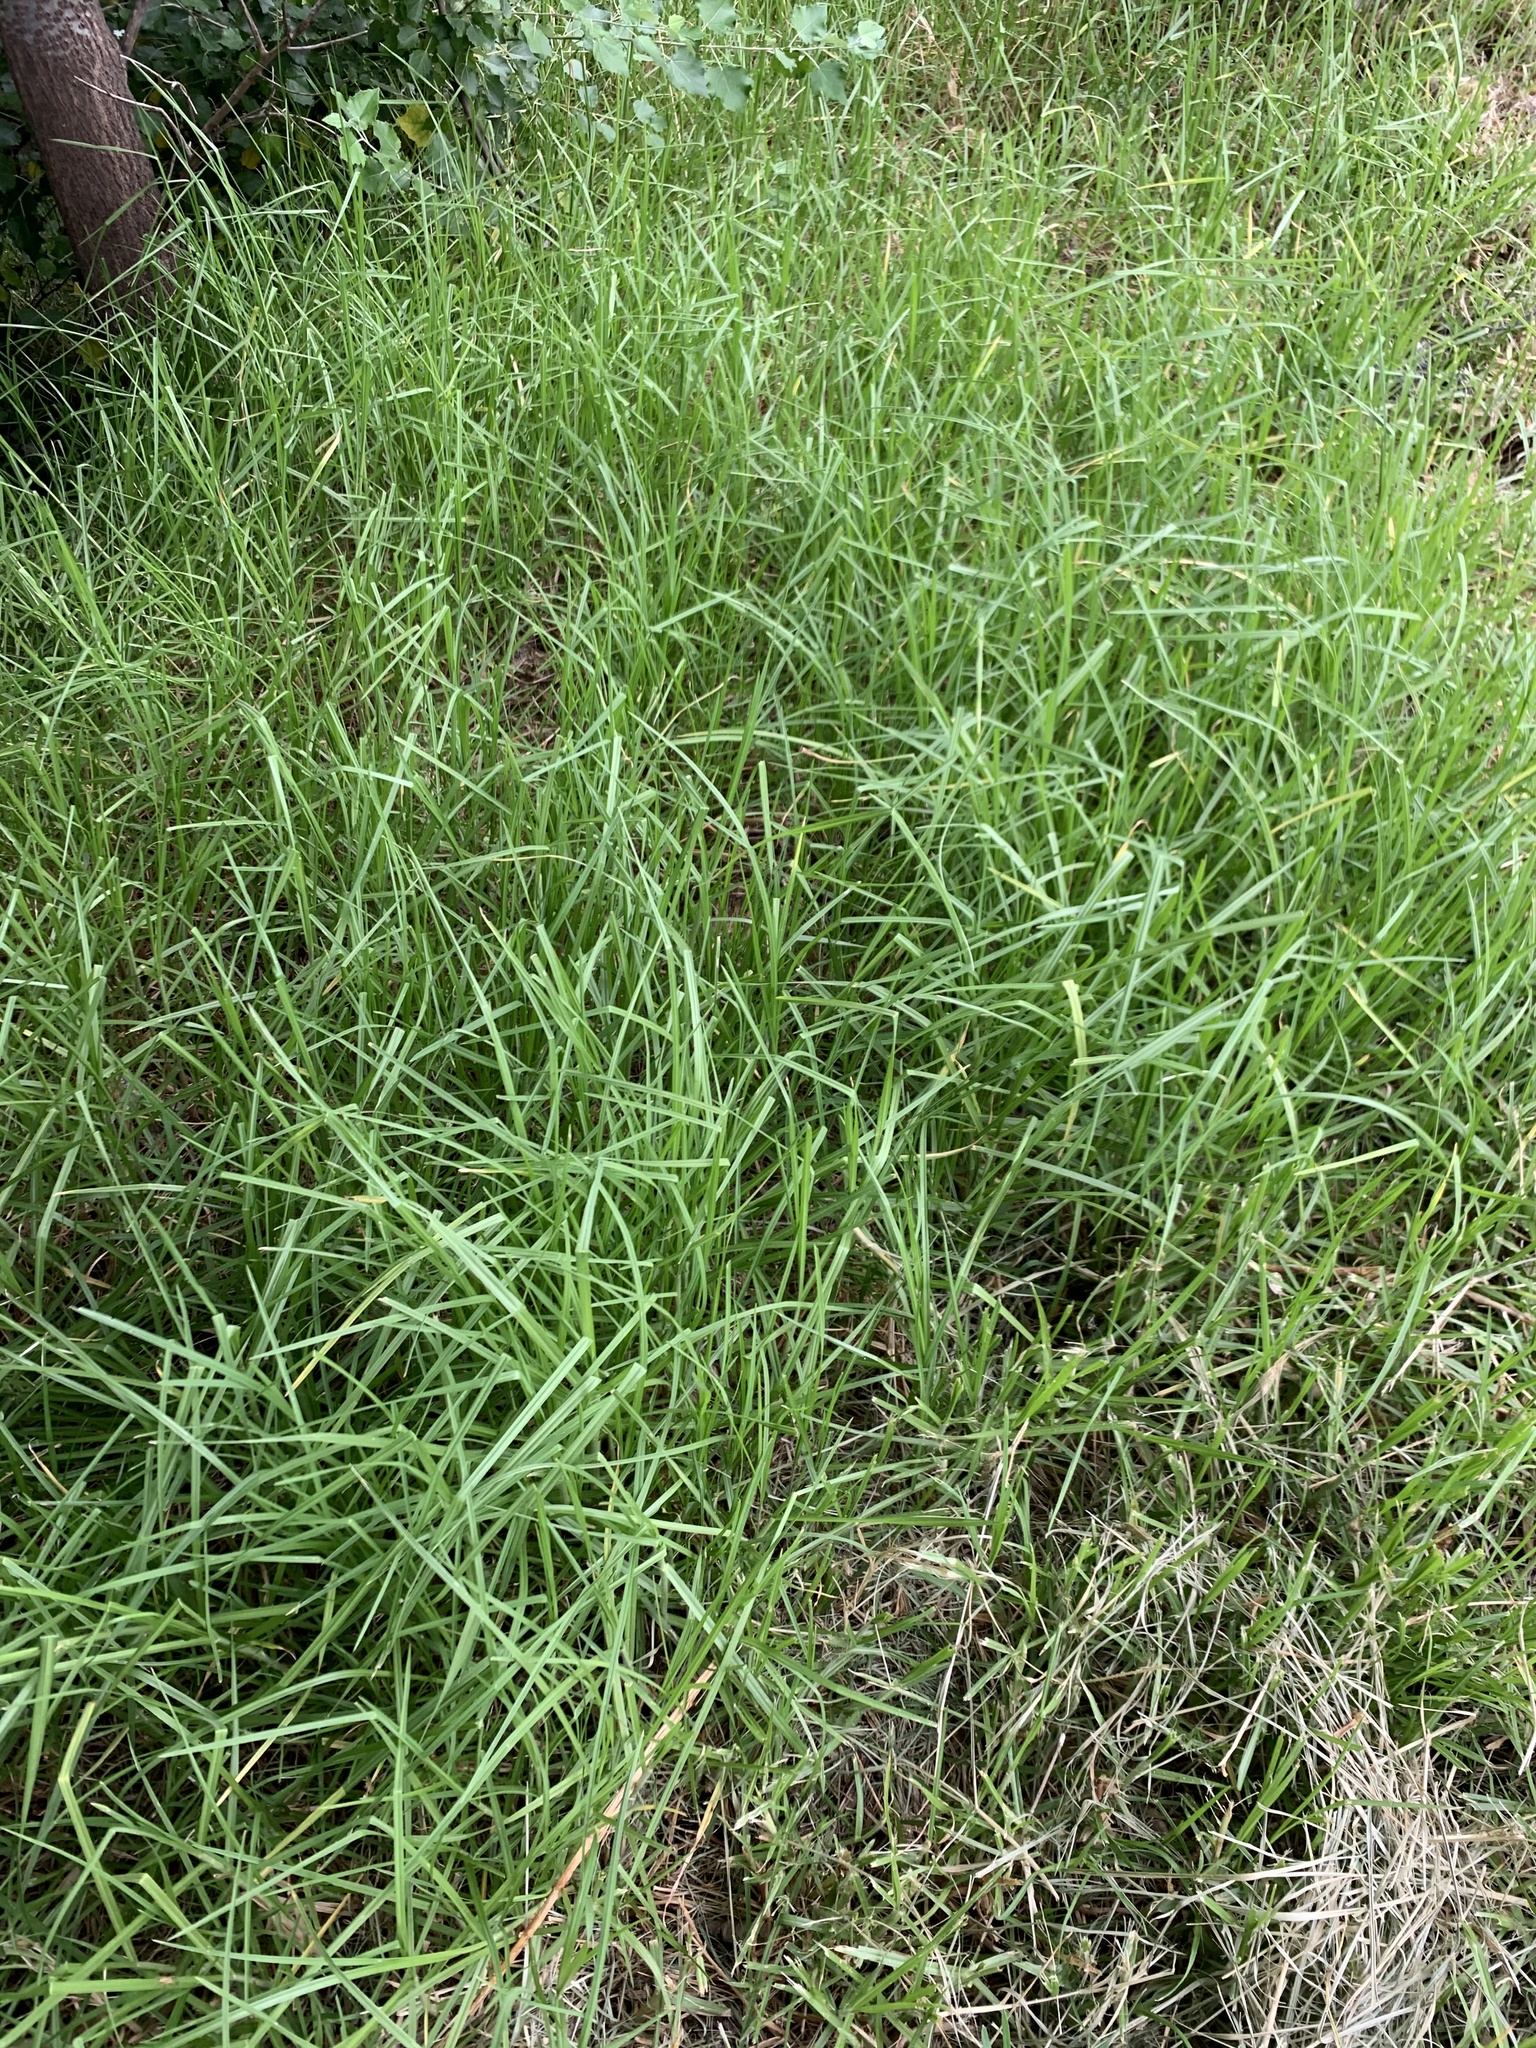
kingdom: Plantae
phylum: Tracheophyta
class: Liliopsida
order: Poales
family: Poaceae
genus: Cenchrus
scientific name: Cenchrus clandestinus
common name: Kikuyugrass
